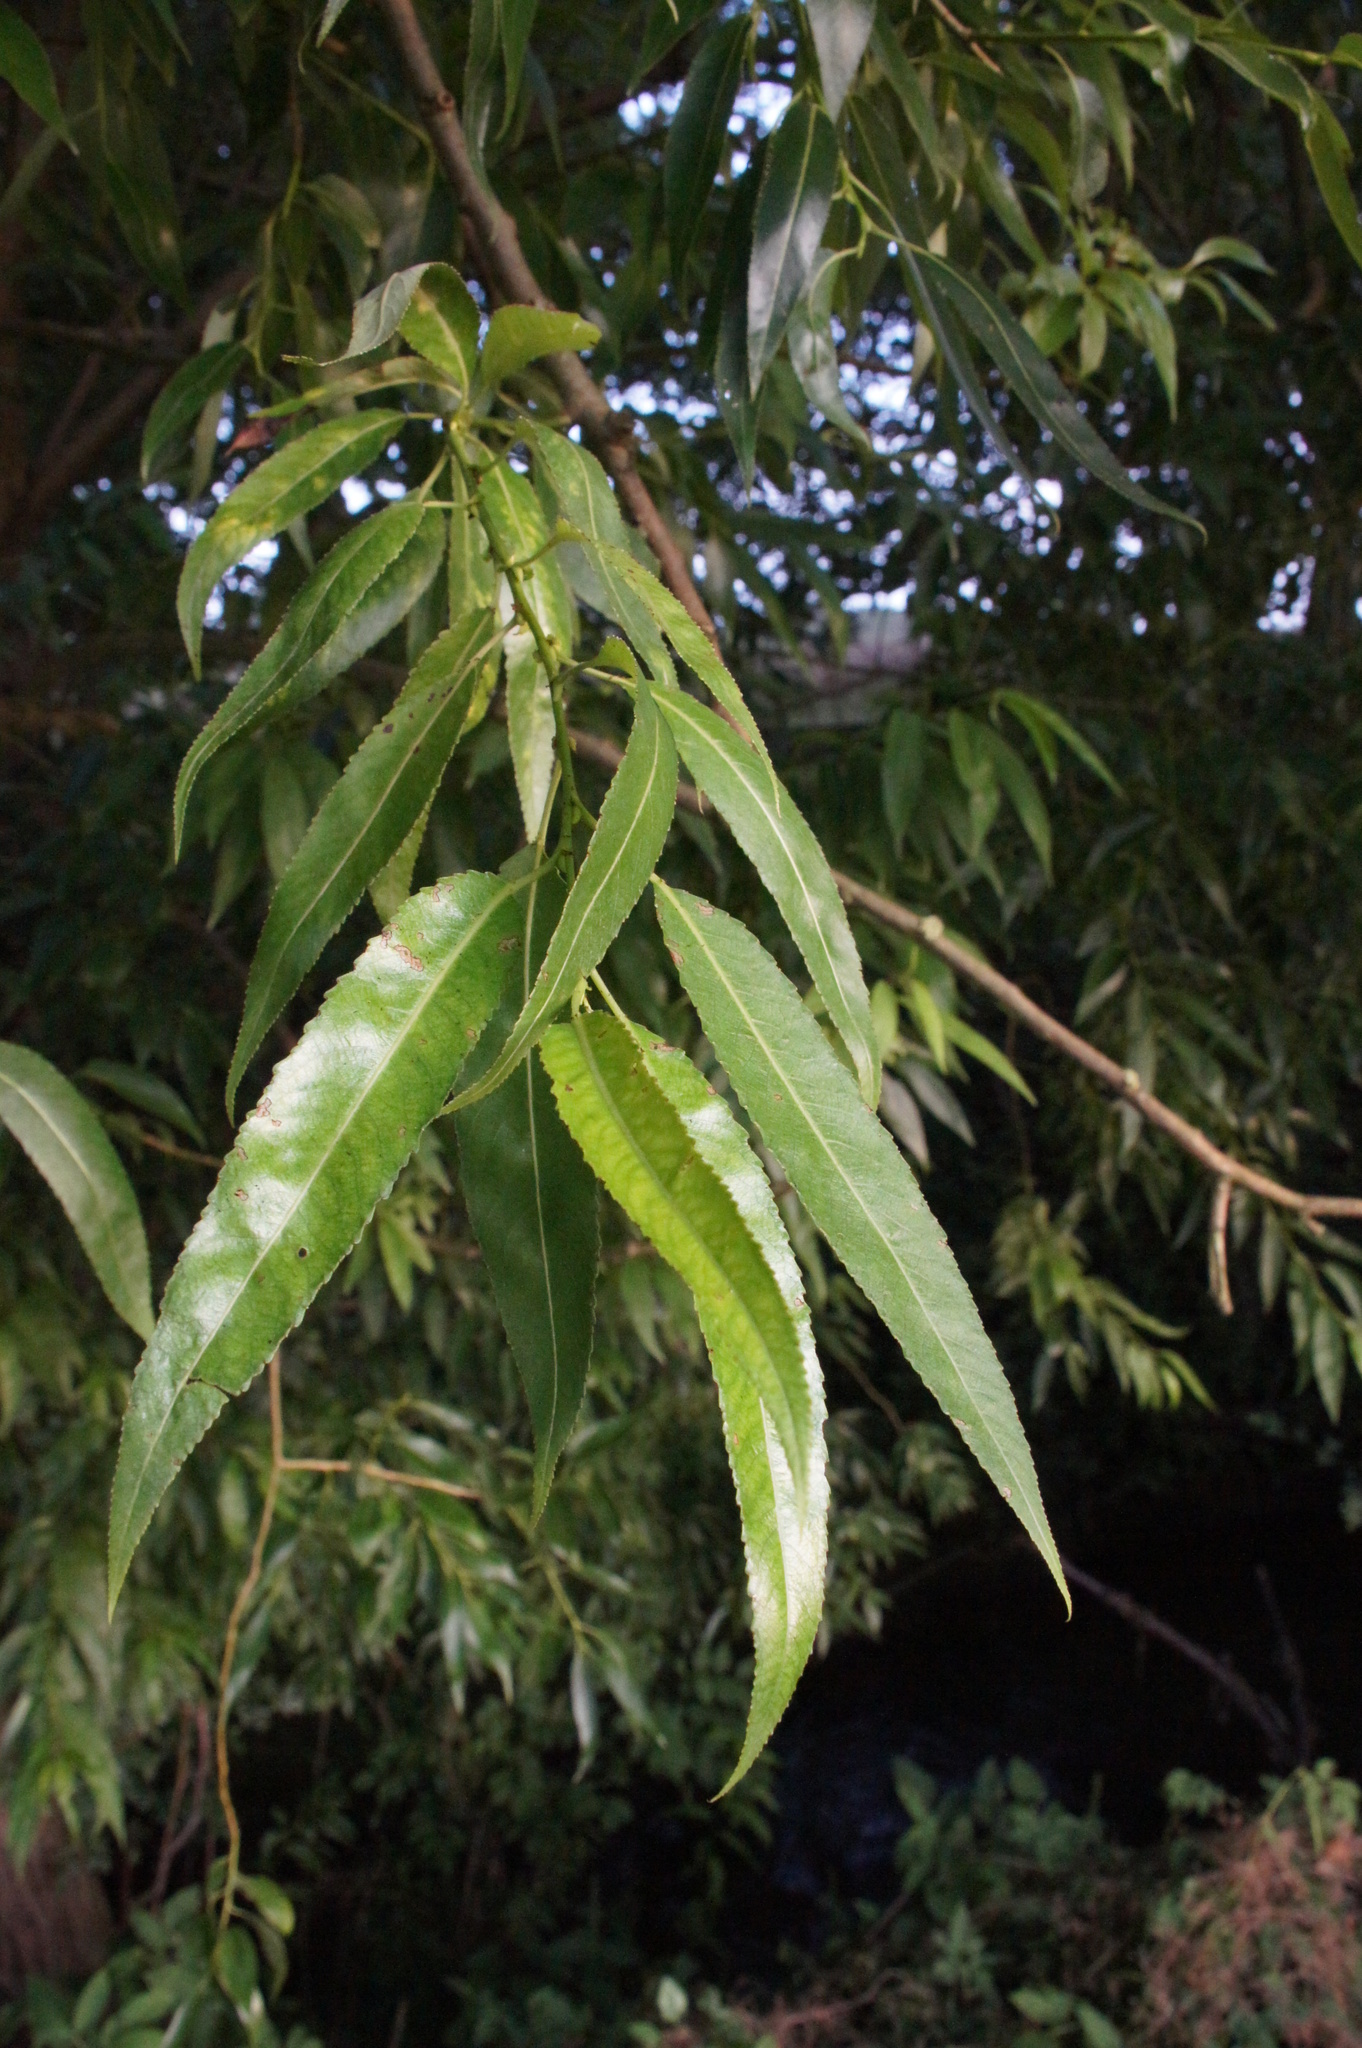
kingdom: Plantae
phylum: Tracheophyta
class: Magnoliopsida
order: Malpighiales
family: Salicaceae
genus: Salix
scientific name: Salix fragilis
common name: Crack willow
